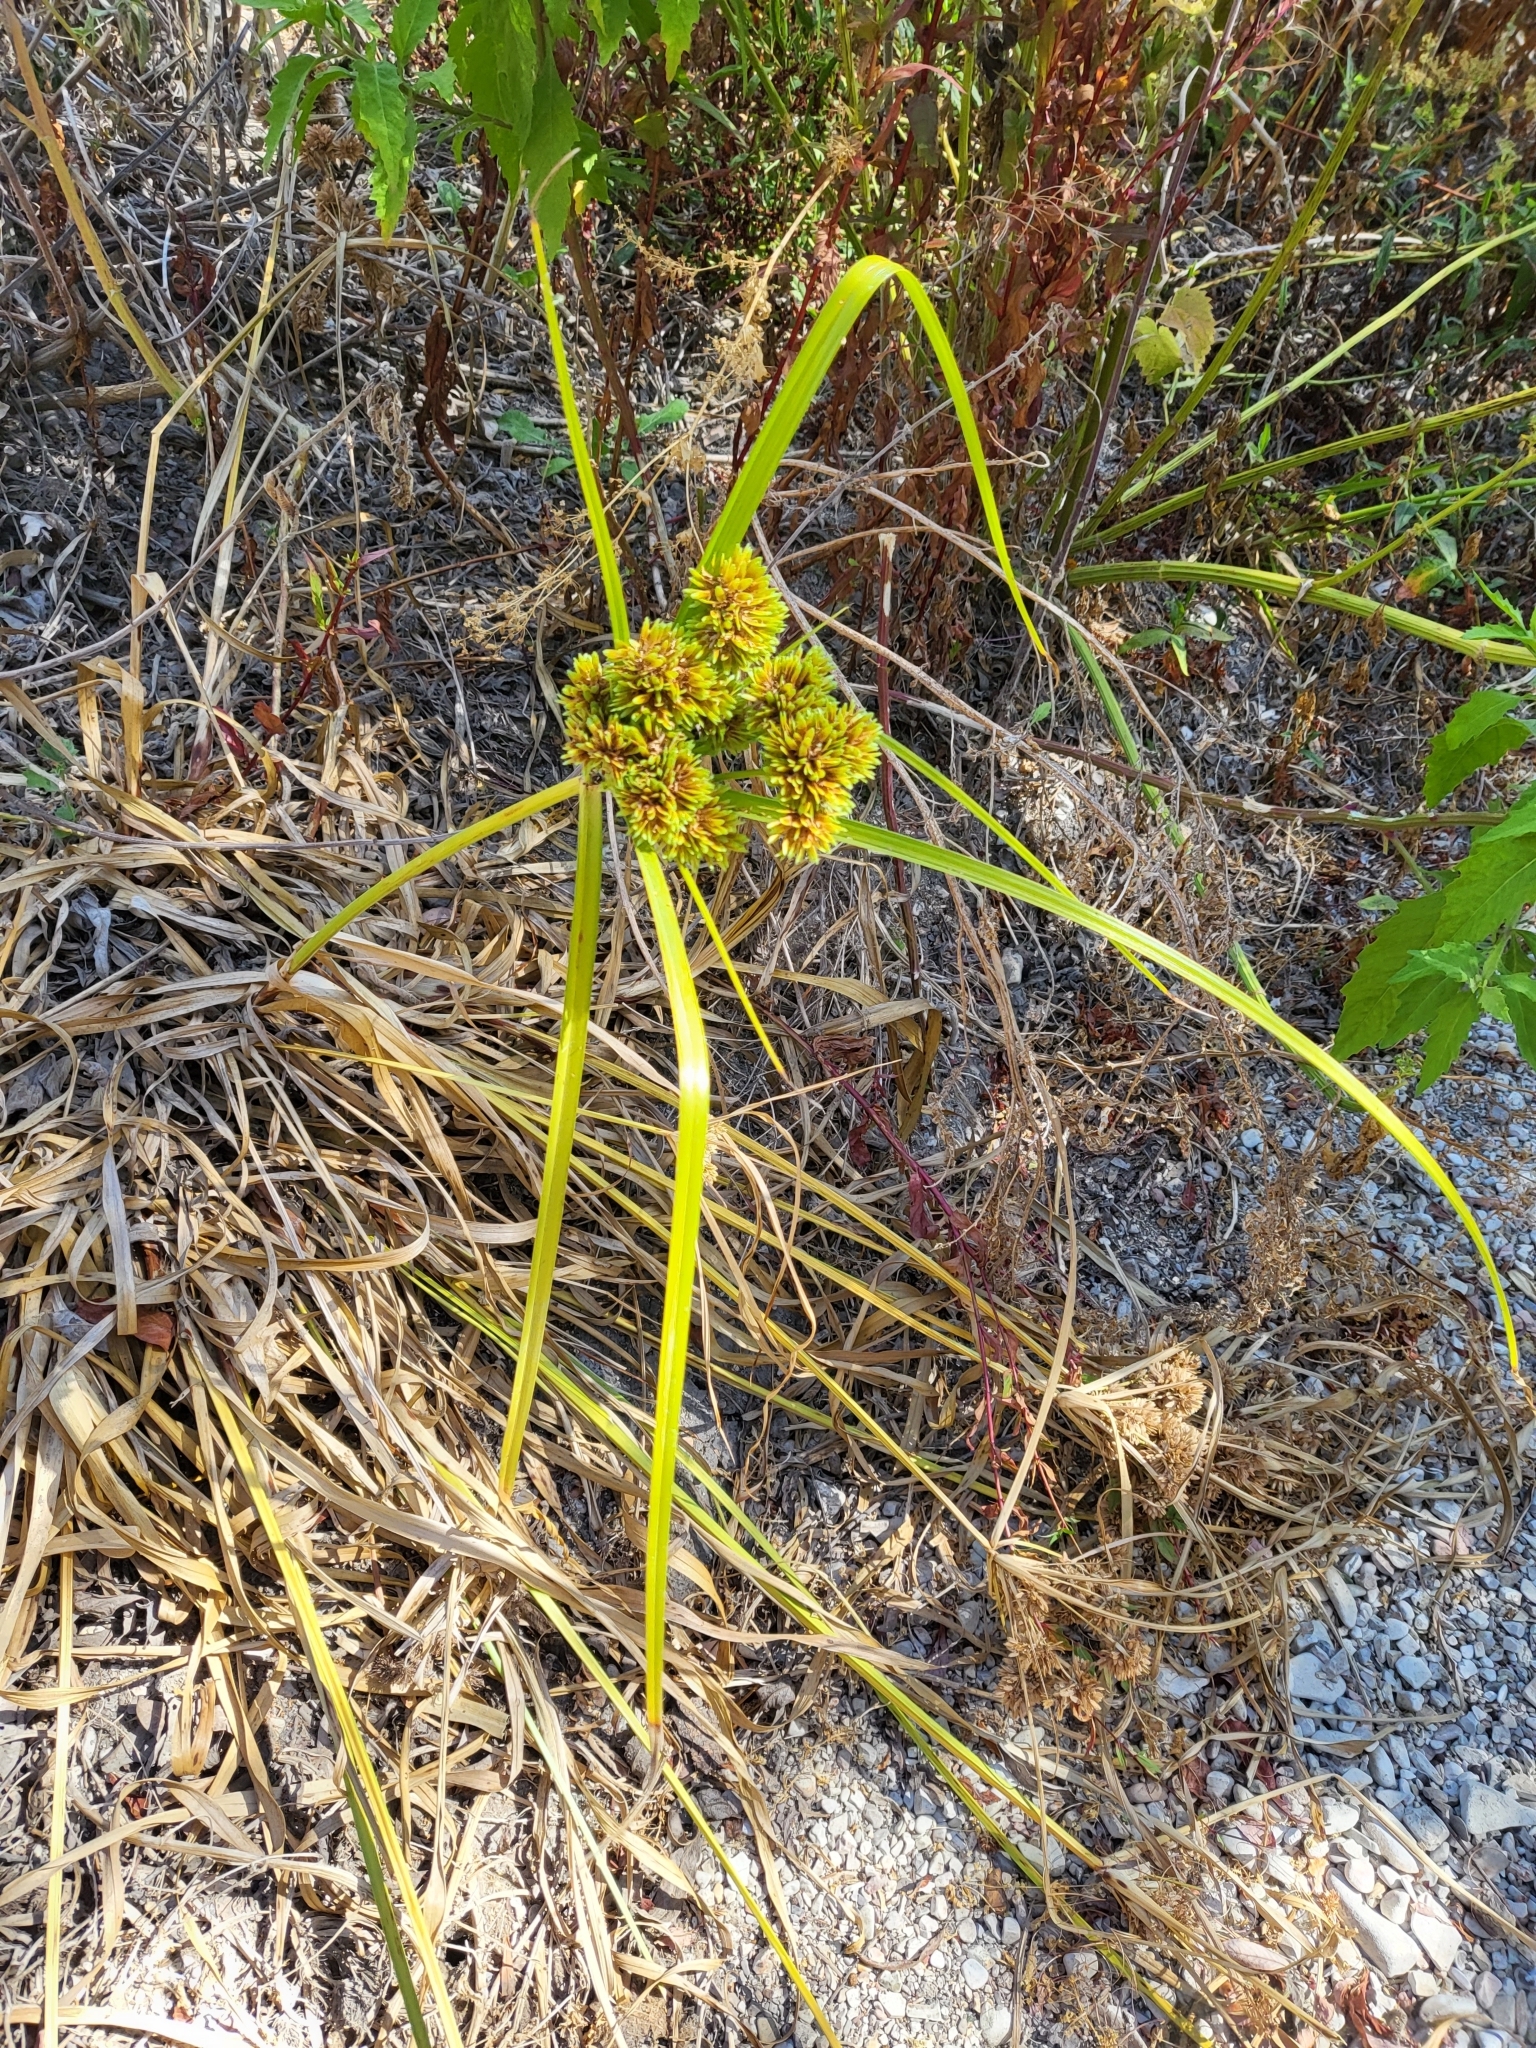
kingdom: Plantae
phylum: Tracheophyta
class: Liliopsida
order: Poales
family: Cyperaceae
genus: Cyperus
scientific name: Cyperus eragrostis
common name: Tall flatsedge
